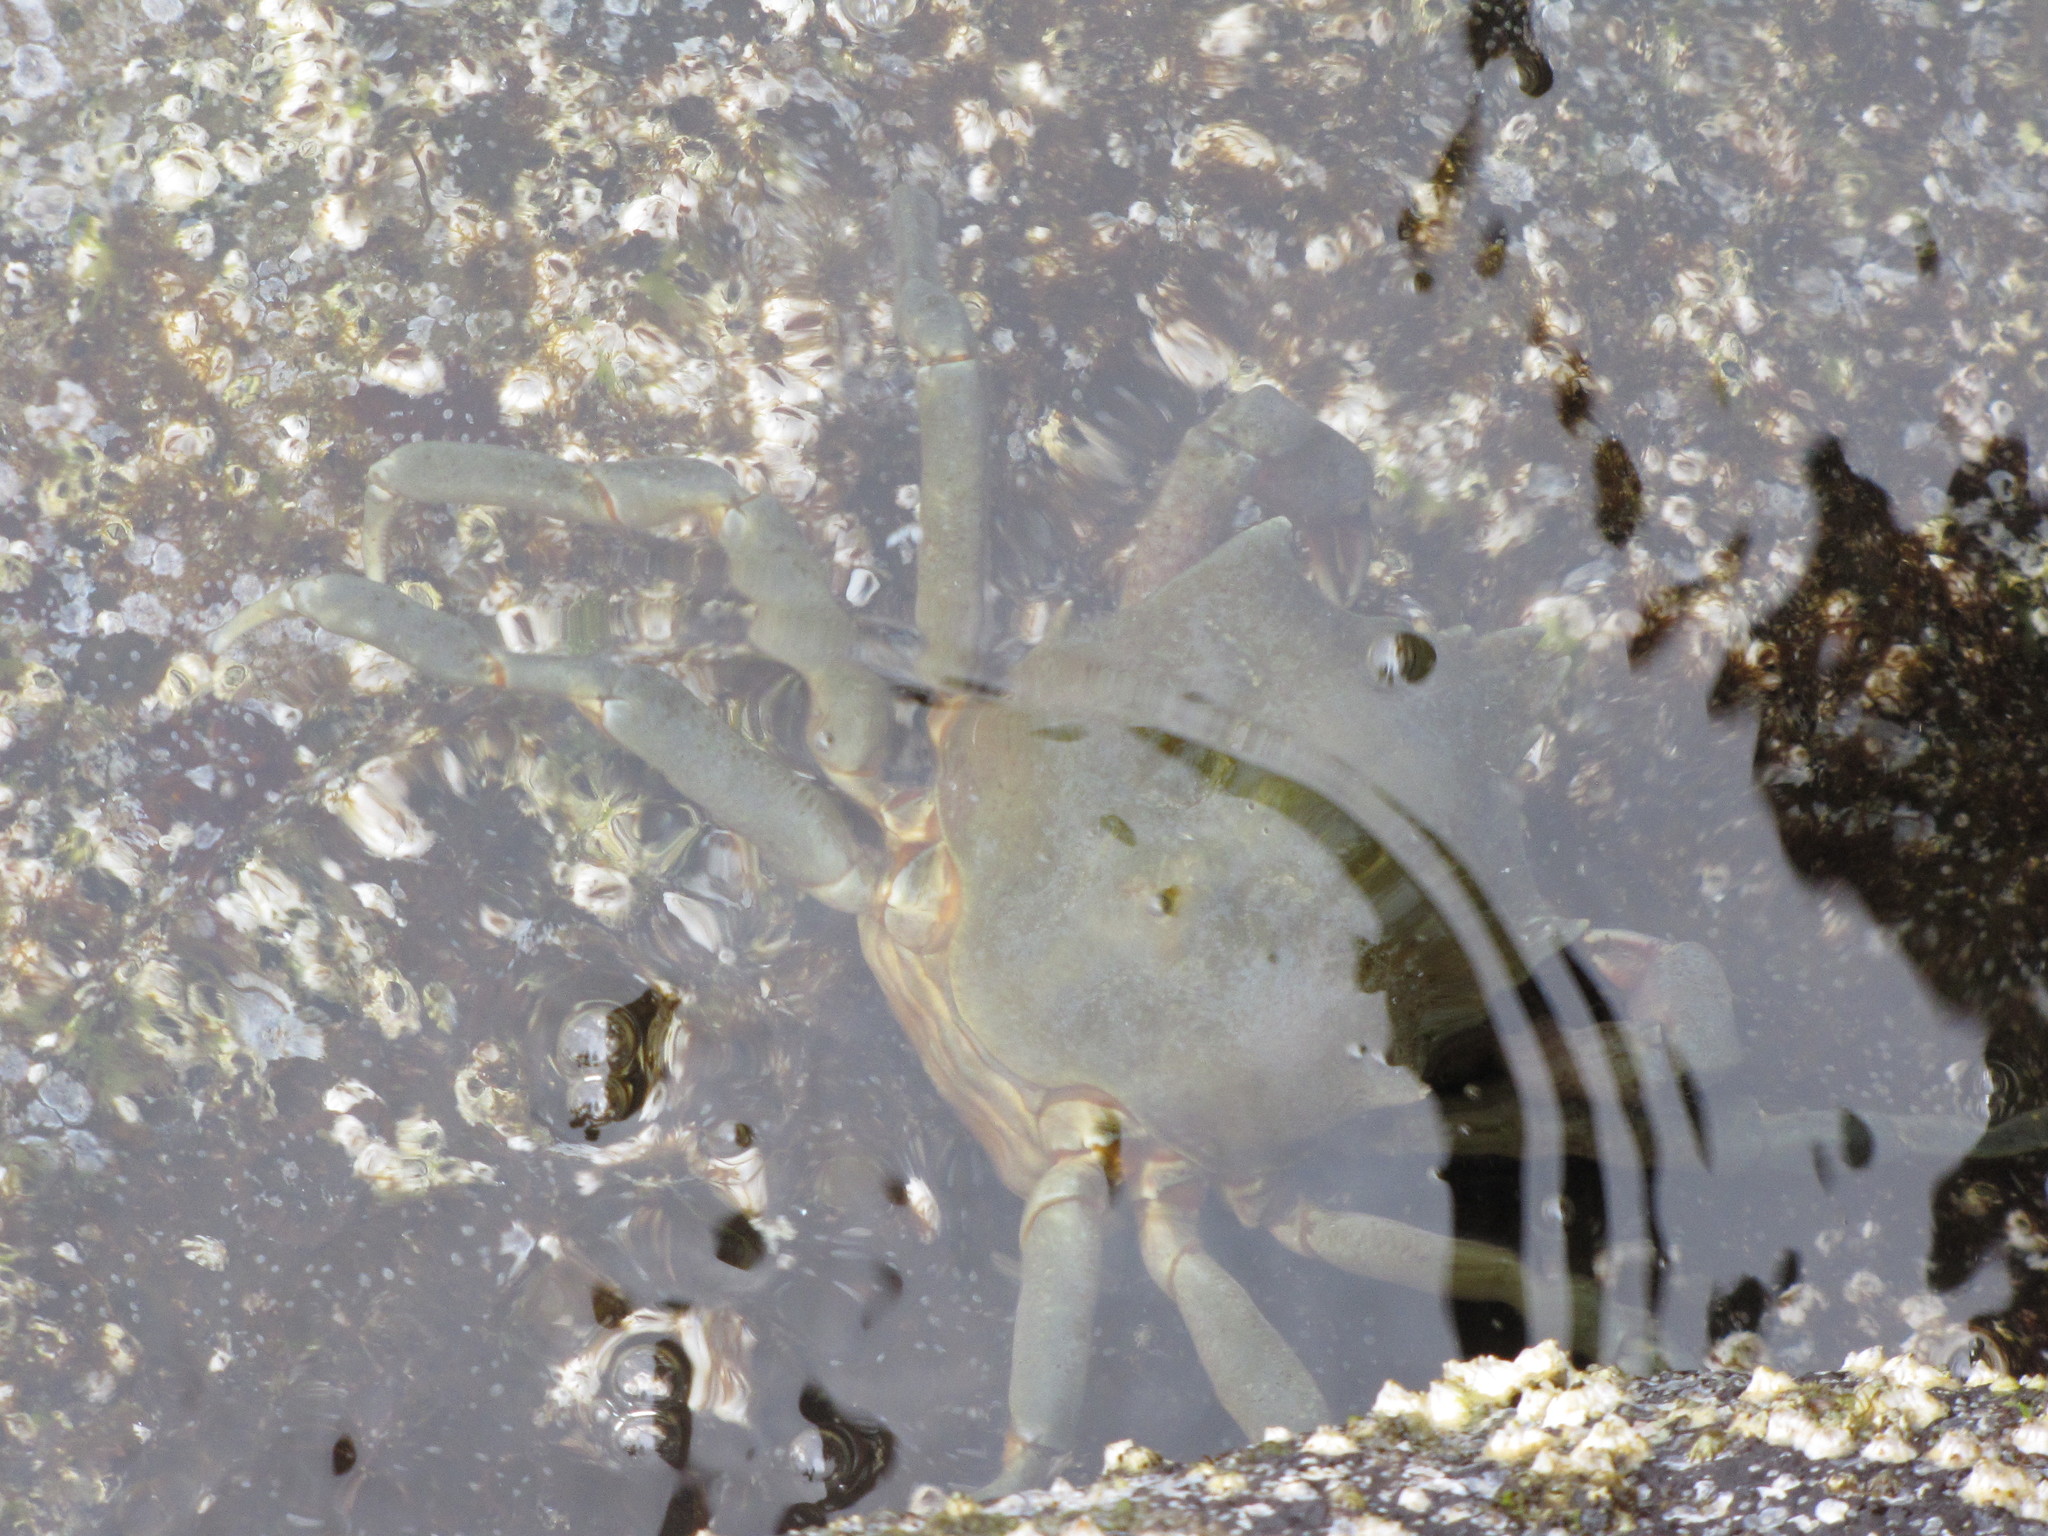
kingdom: Animalia
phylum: Arthropoda
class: Malacostraca
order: Decapoda
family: Epialtidae
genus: Pugettia
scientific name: Pugettia producta
